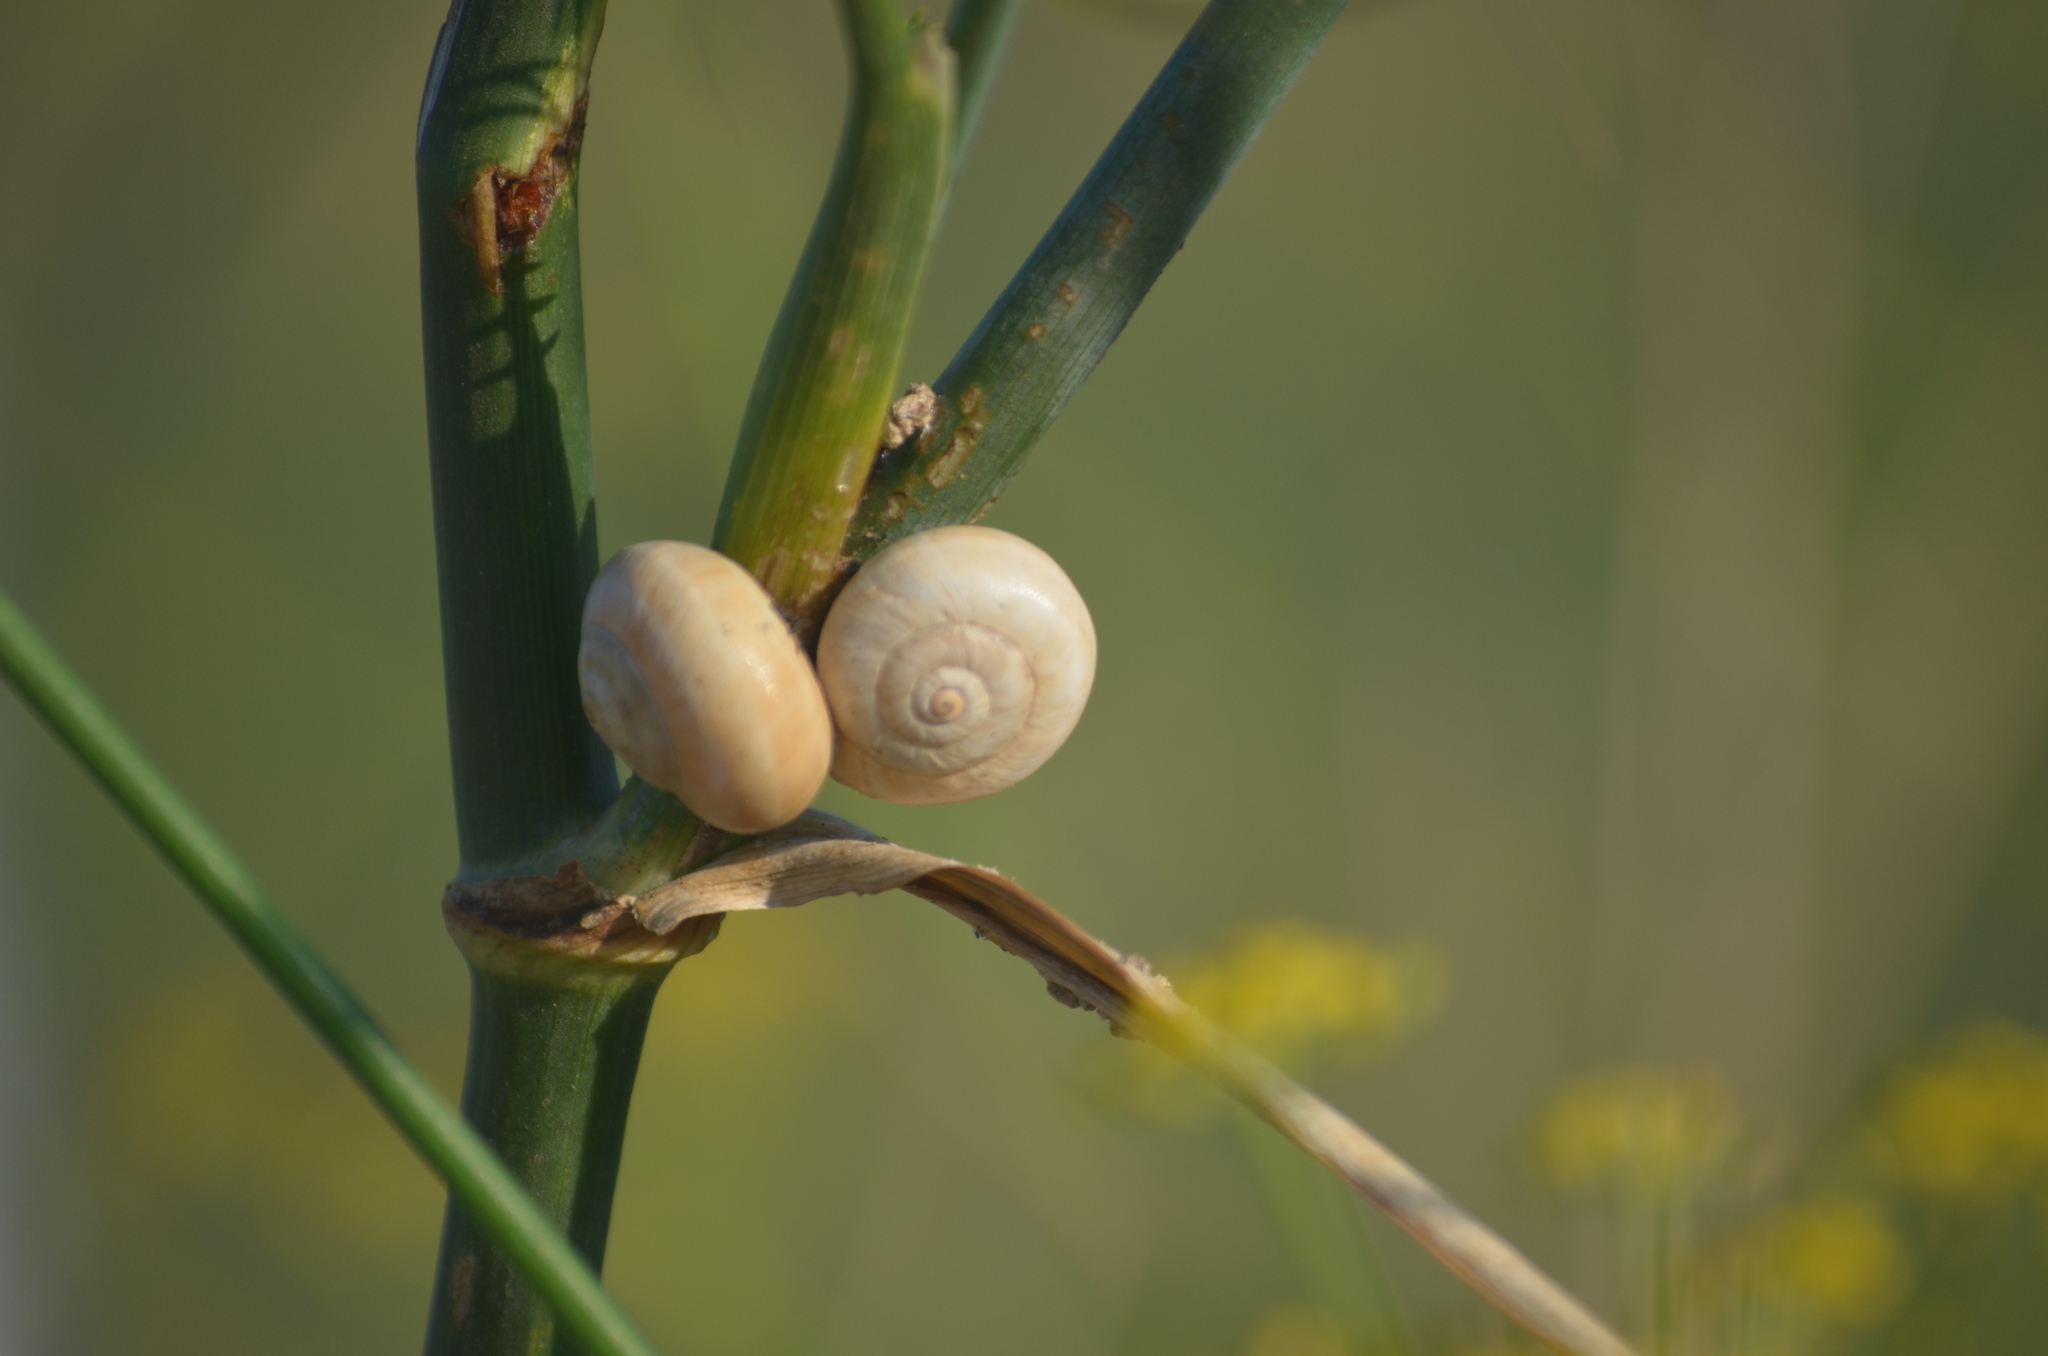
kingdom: Animalia
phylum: Mollusca
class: Gastropoda
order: Stylommatophora
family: Helicidae
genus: Theba
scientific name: Theba pisana
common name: White snail
